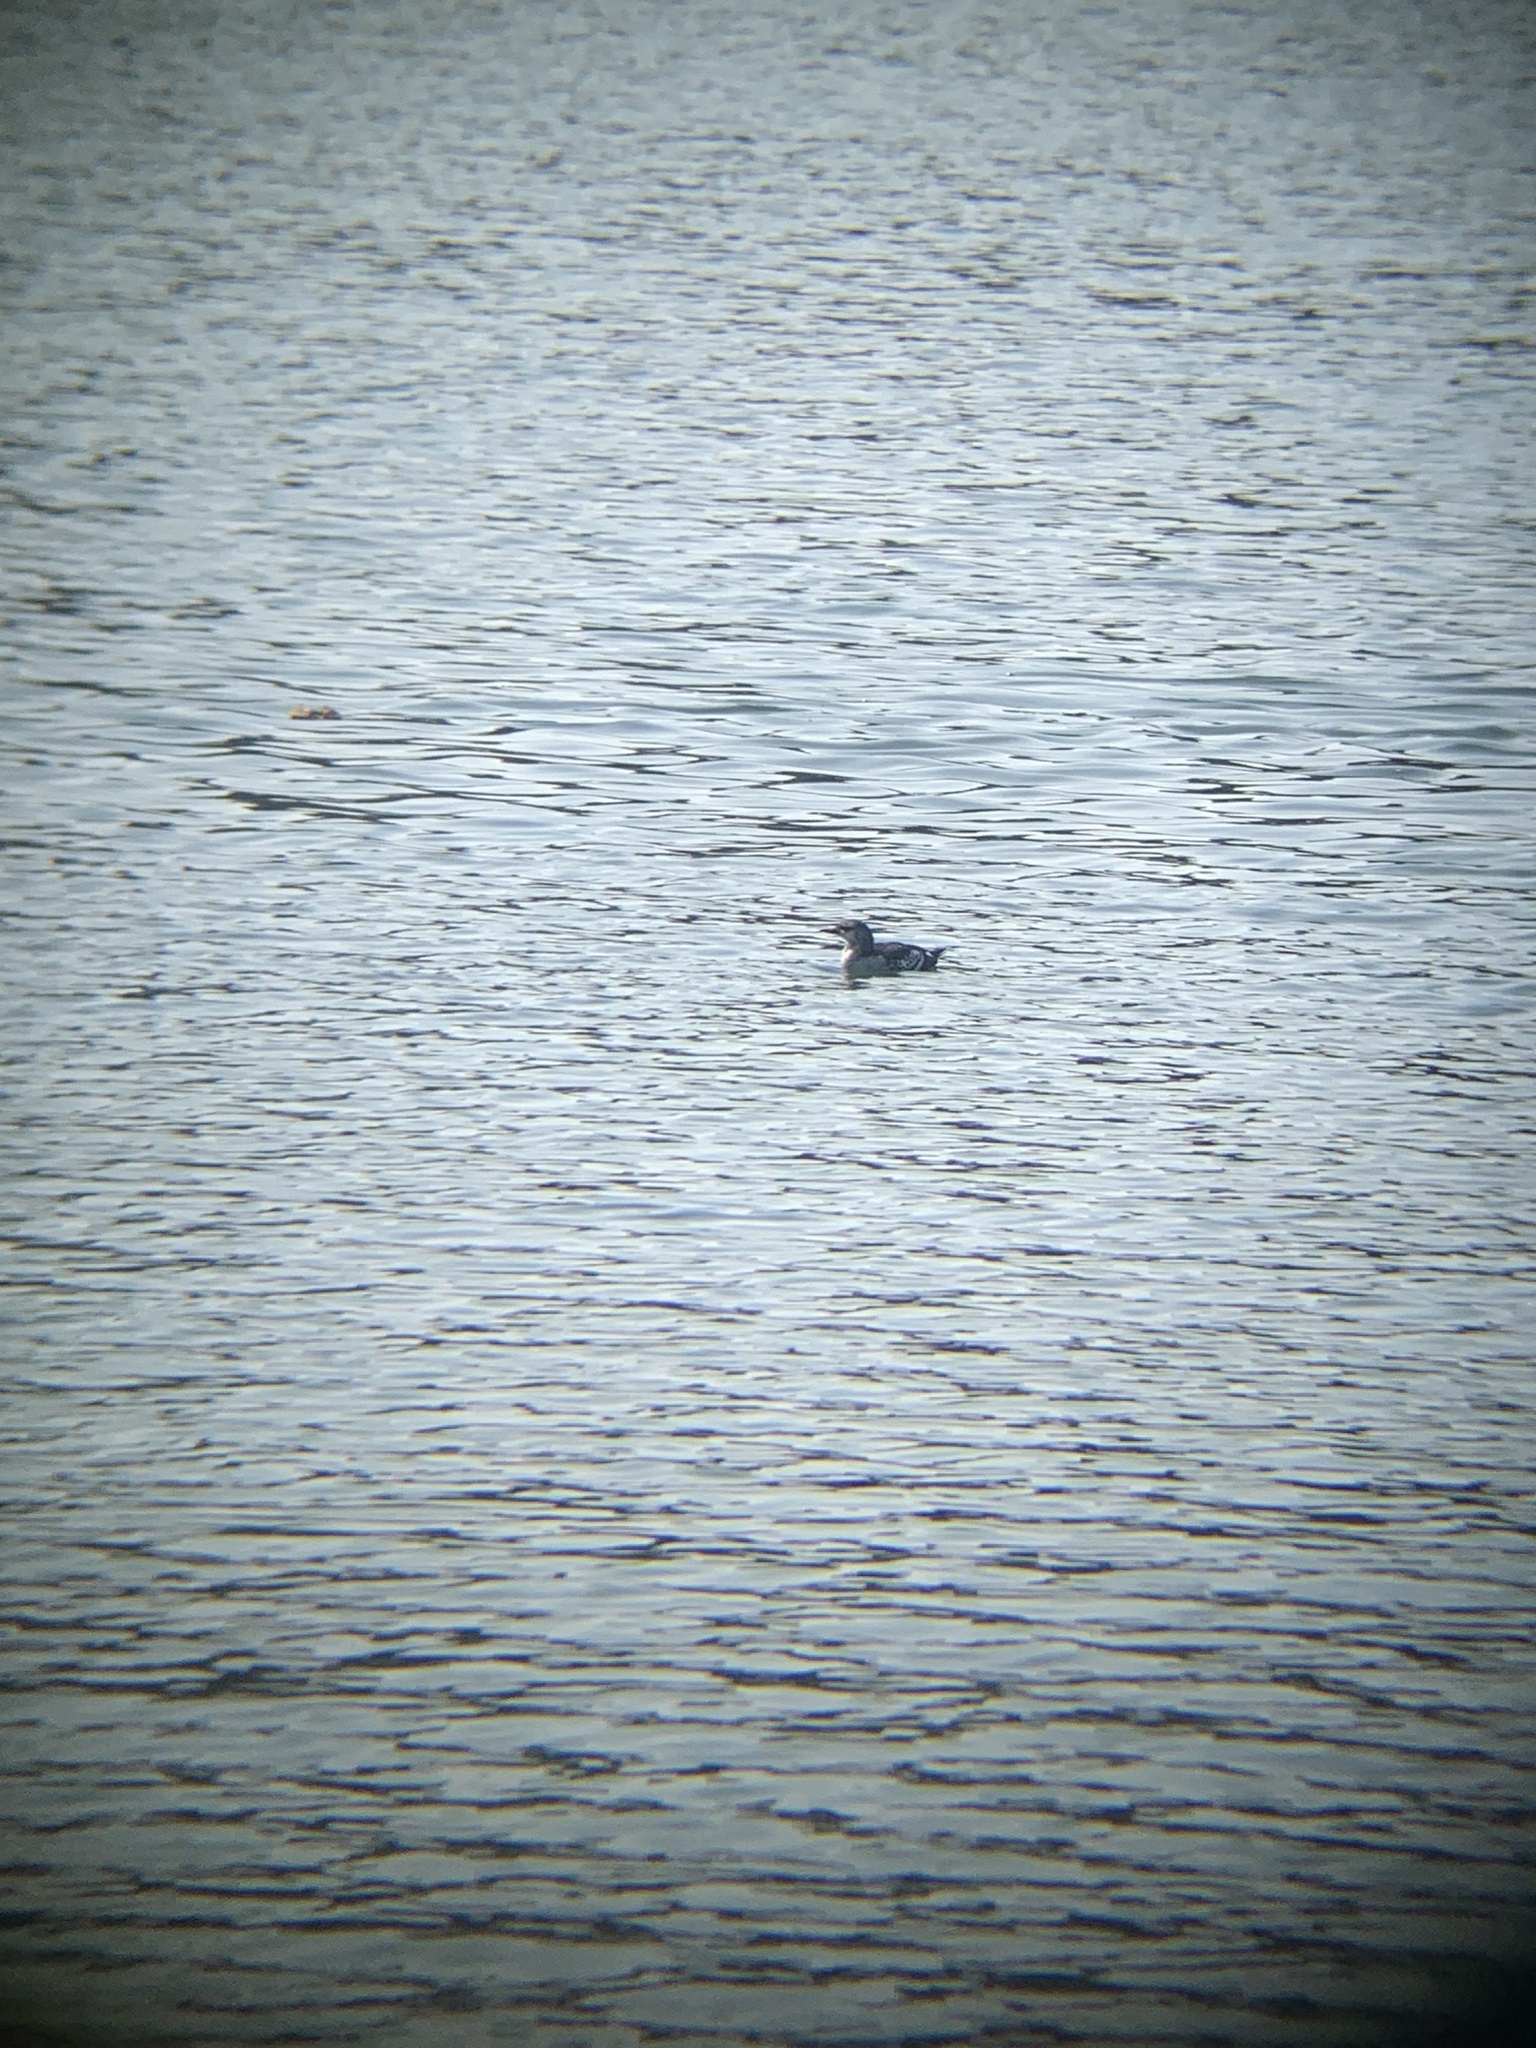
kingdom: Animalia
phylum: Chordata
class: Aves
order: Charadriiformes
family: Alcidae
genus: Cepphus
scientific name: Cepphus grylle
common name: Black guillemot
